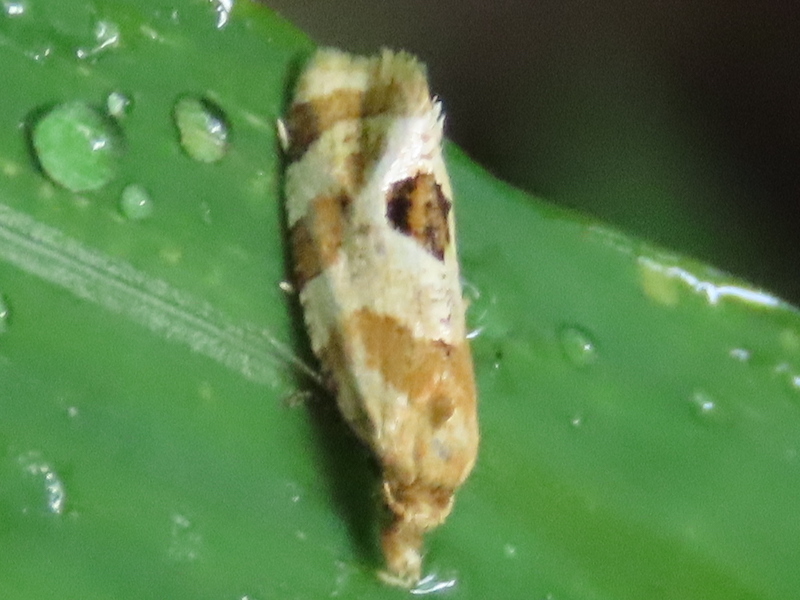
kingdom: Animalia
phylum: Arthropoda
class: Insecta
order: Lepidoptera
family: Tortricidae
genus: Aethes
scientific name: Aethes argentilimitana
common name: Silver-bordered aethes
